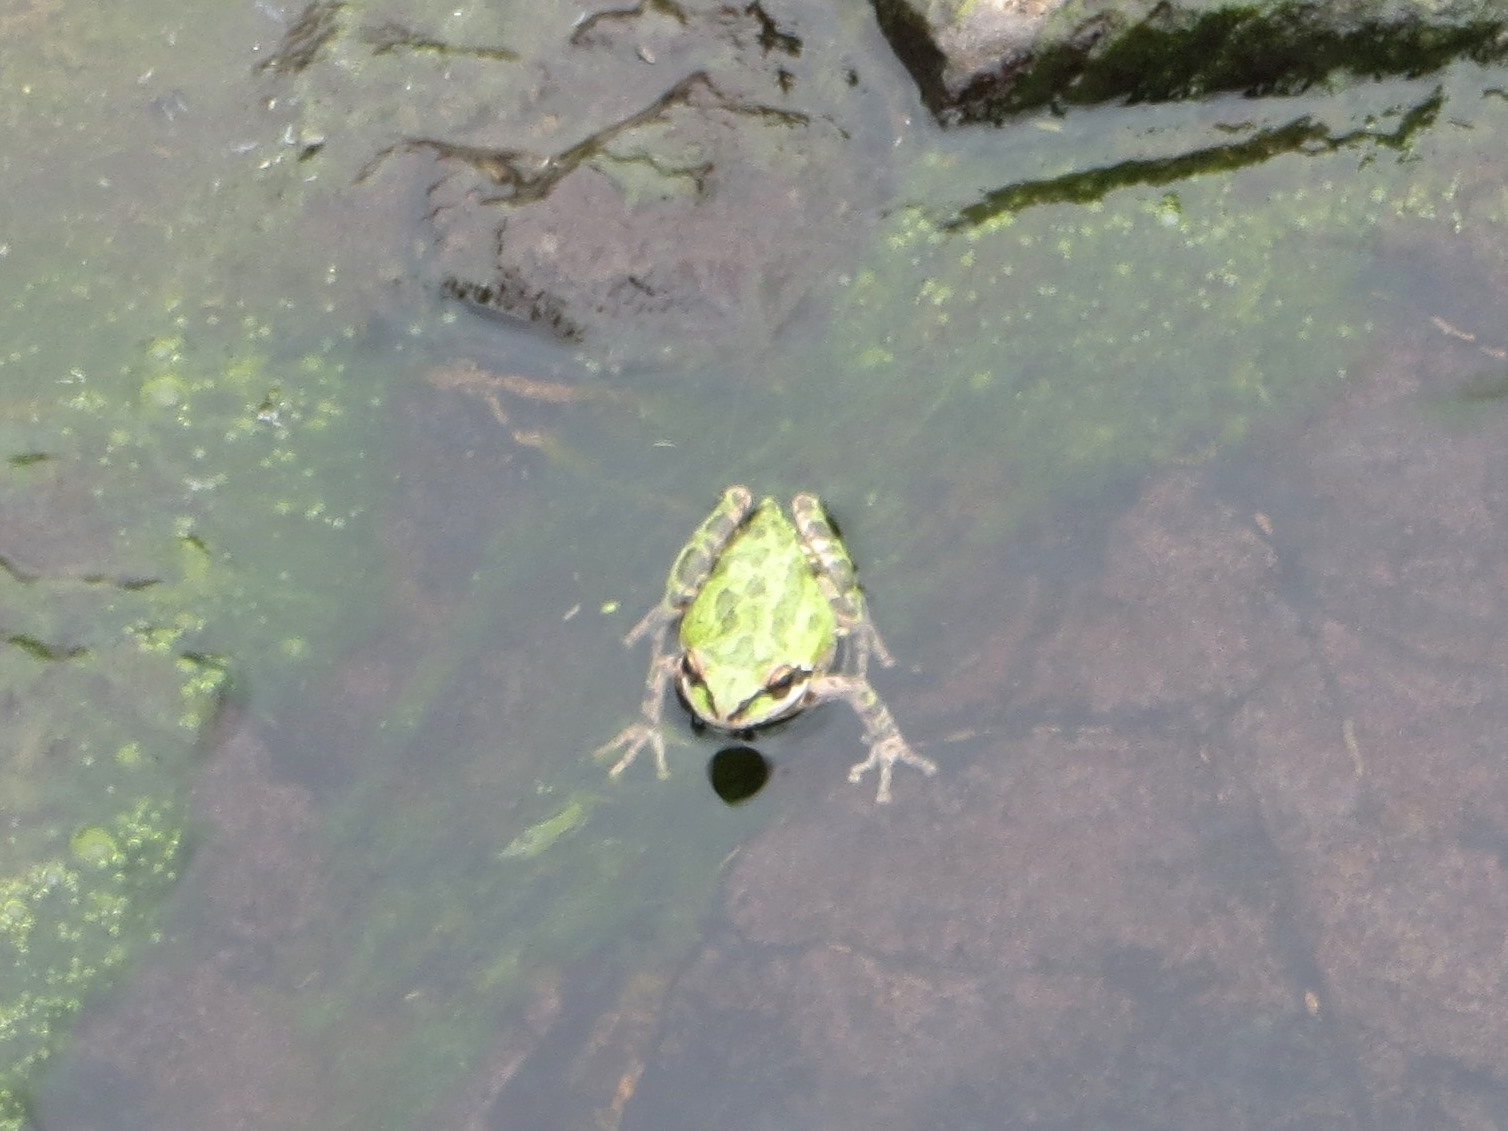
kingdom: Animalia
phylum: Chordata
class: Amphibia
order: Anura
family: Hylidae
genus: Pseudacris
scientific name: Pseudacris regilla
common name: Pacific chorus frog
